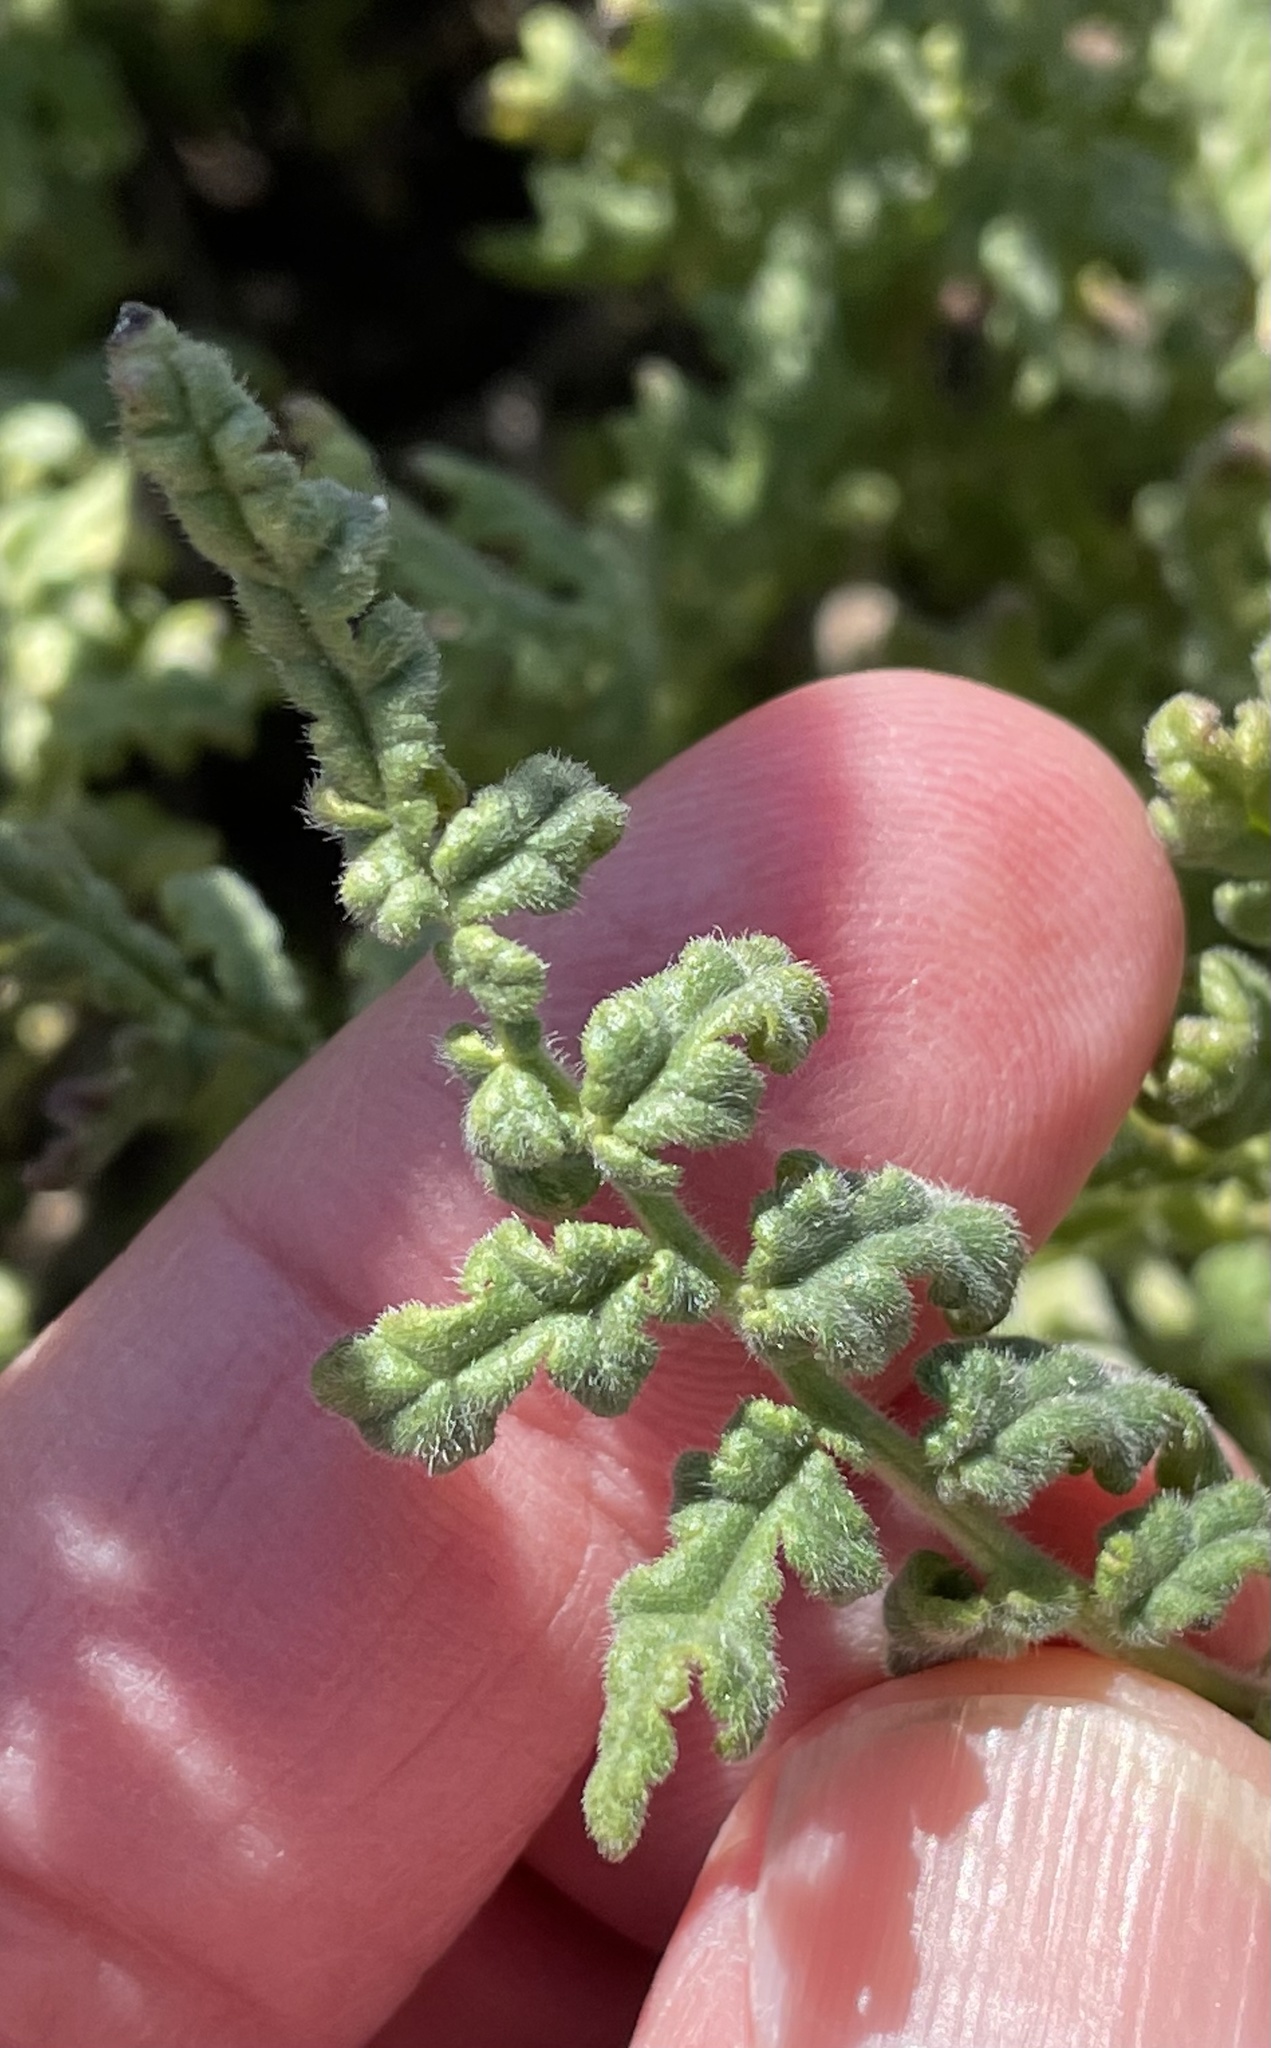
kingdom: Plantae
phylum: Tracheophyta
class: Magnoliopsida
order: Boraginales
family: Hydrophyllaceae
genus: Phacelia
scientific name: Phacelia ramosissima
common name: Branching phacelia
